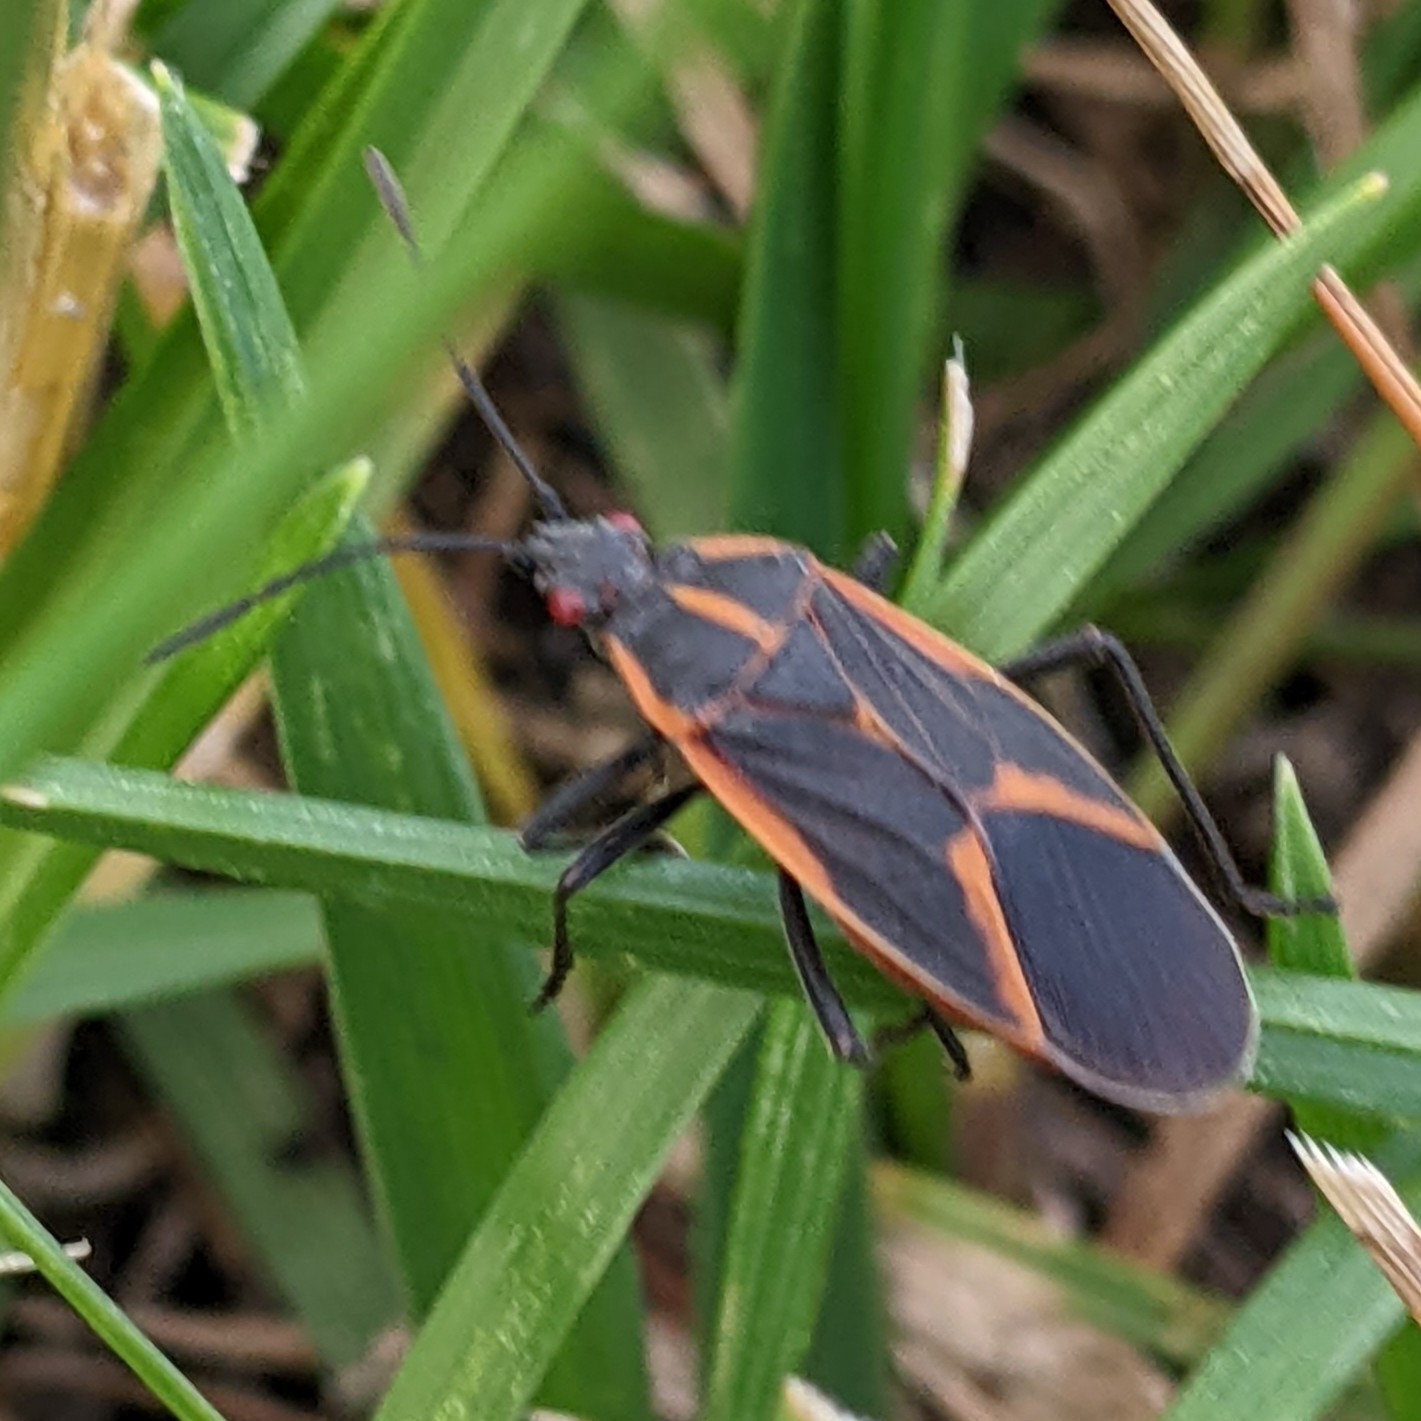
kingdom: Animalia
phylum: Arthropoda
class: Insecta
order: Hemiptera
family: Rhopalidae
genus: Boisea
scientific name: Boisea trivittata
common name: Boxelder bug
